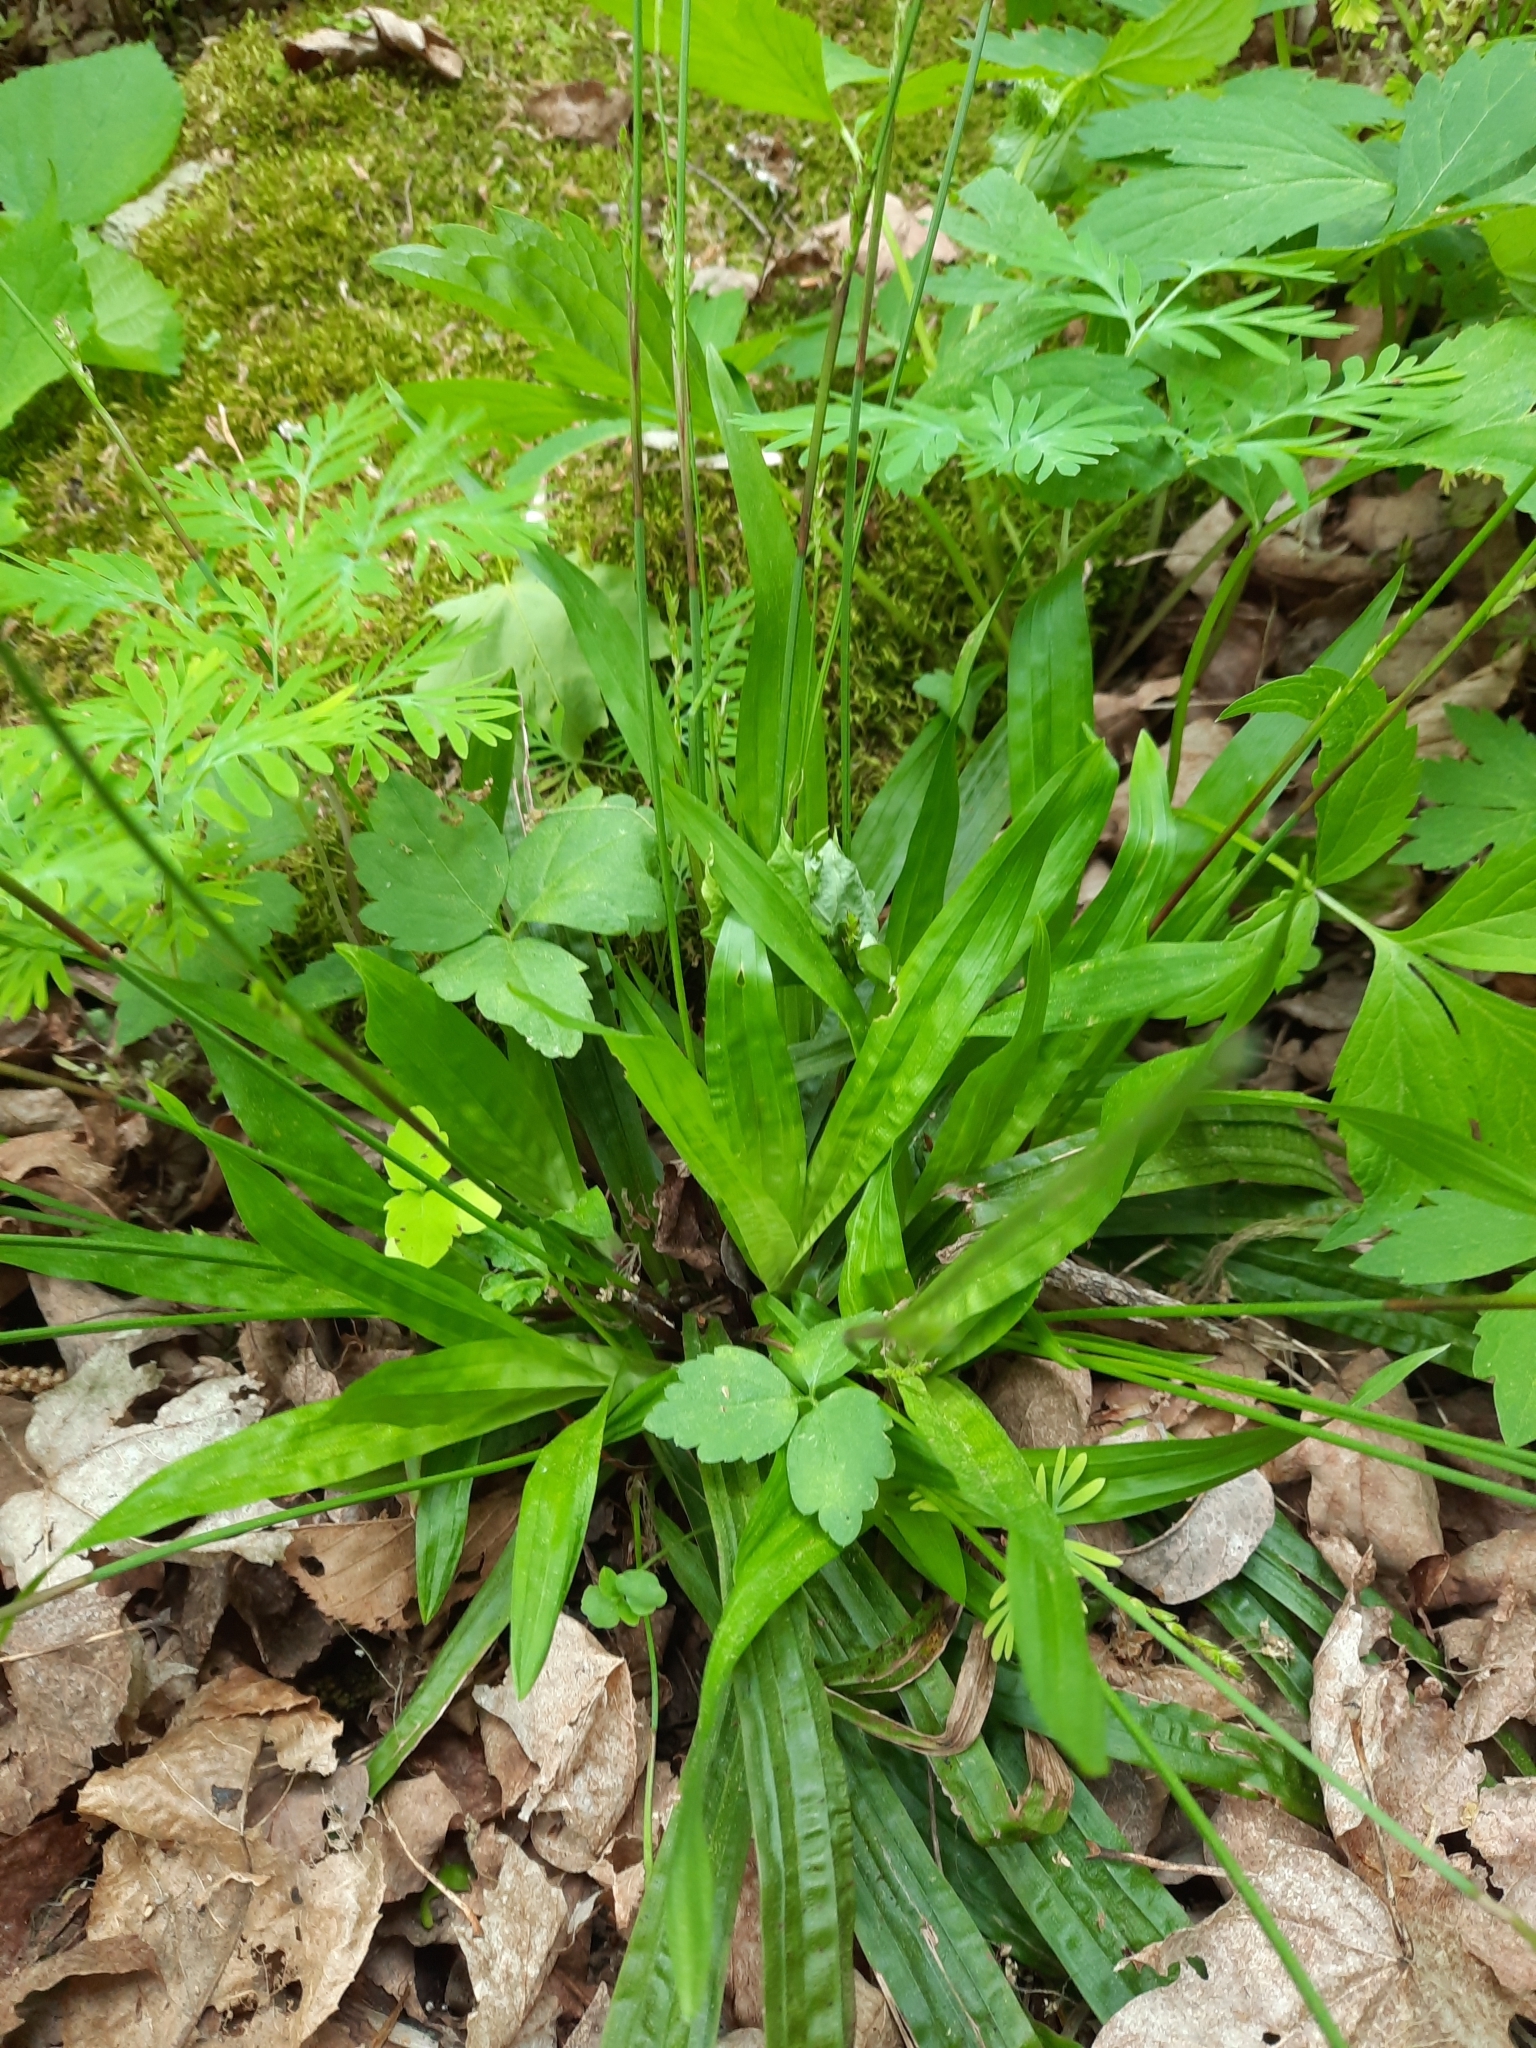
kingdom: Plantae
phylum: Tracheophyta
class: Liliopsida
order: Poales
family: Cyperaceae
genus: Carex
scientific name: Carex plantaginea
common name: Plantain-leaved sedge
